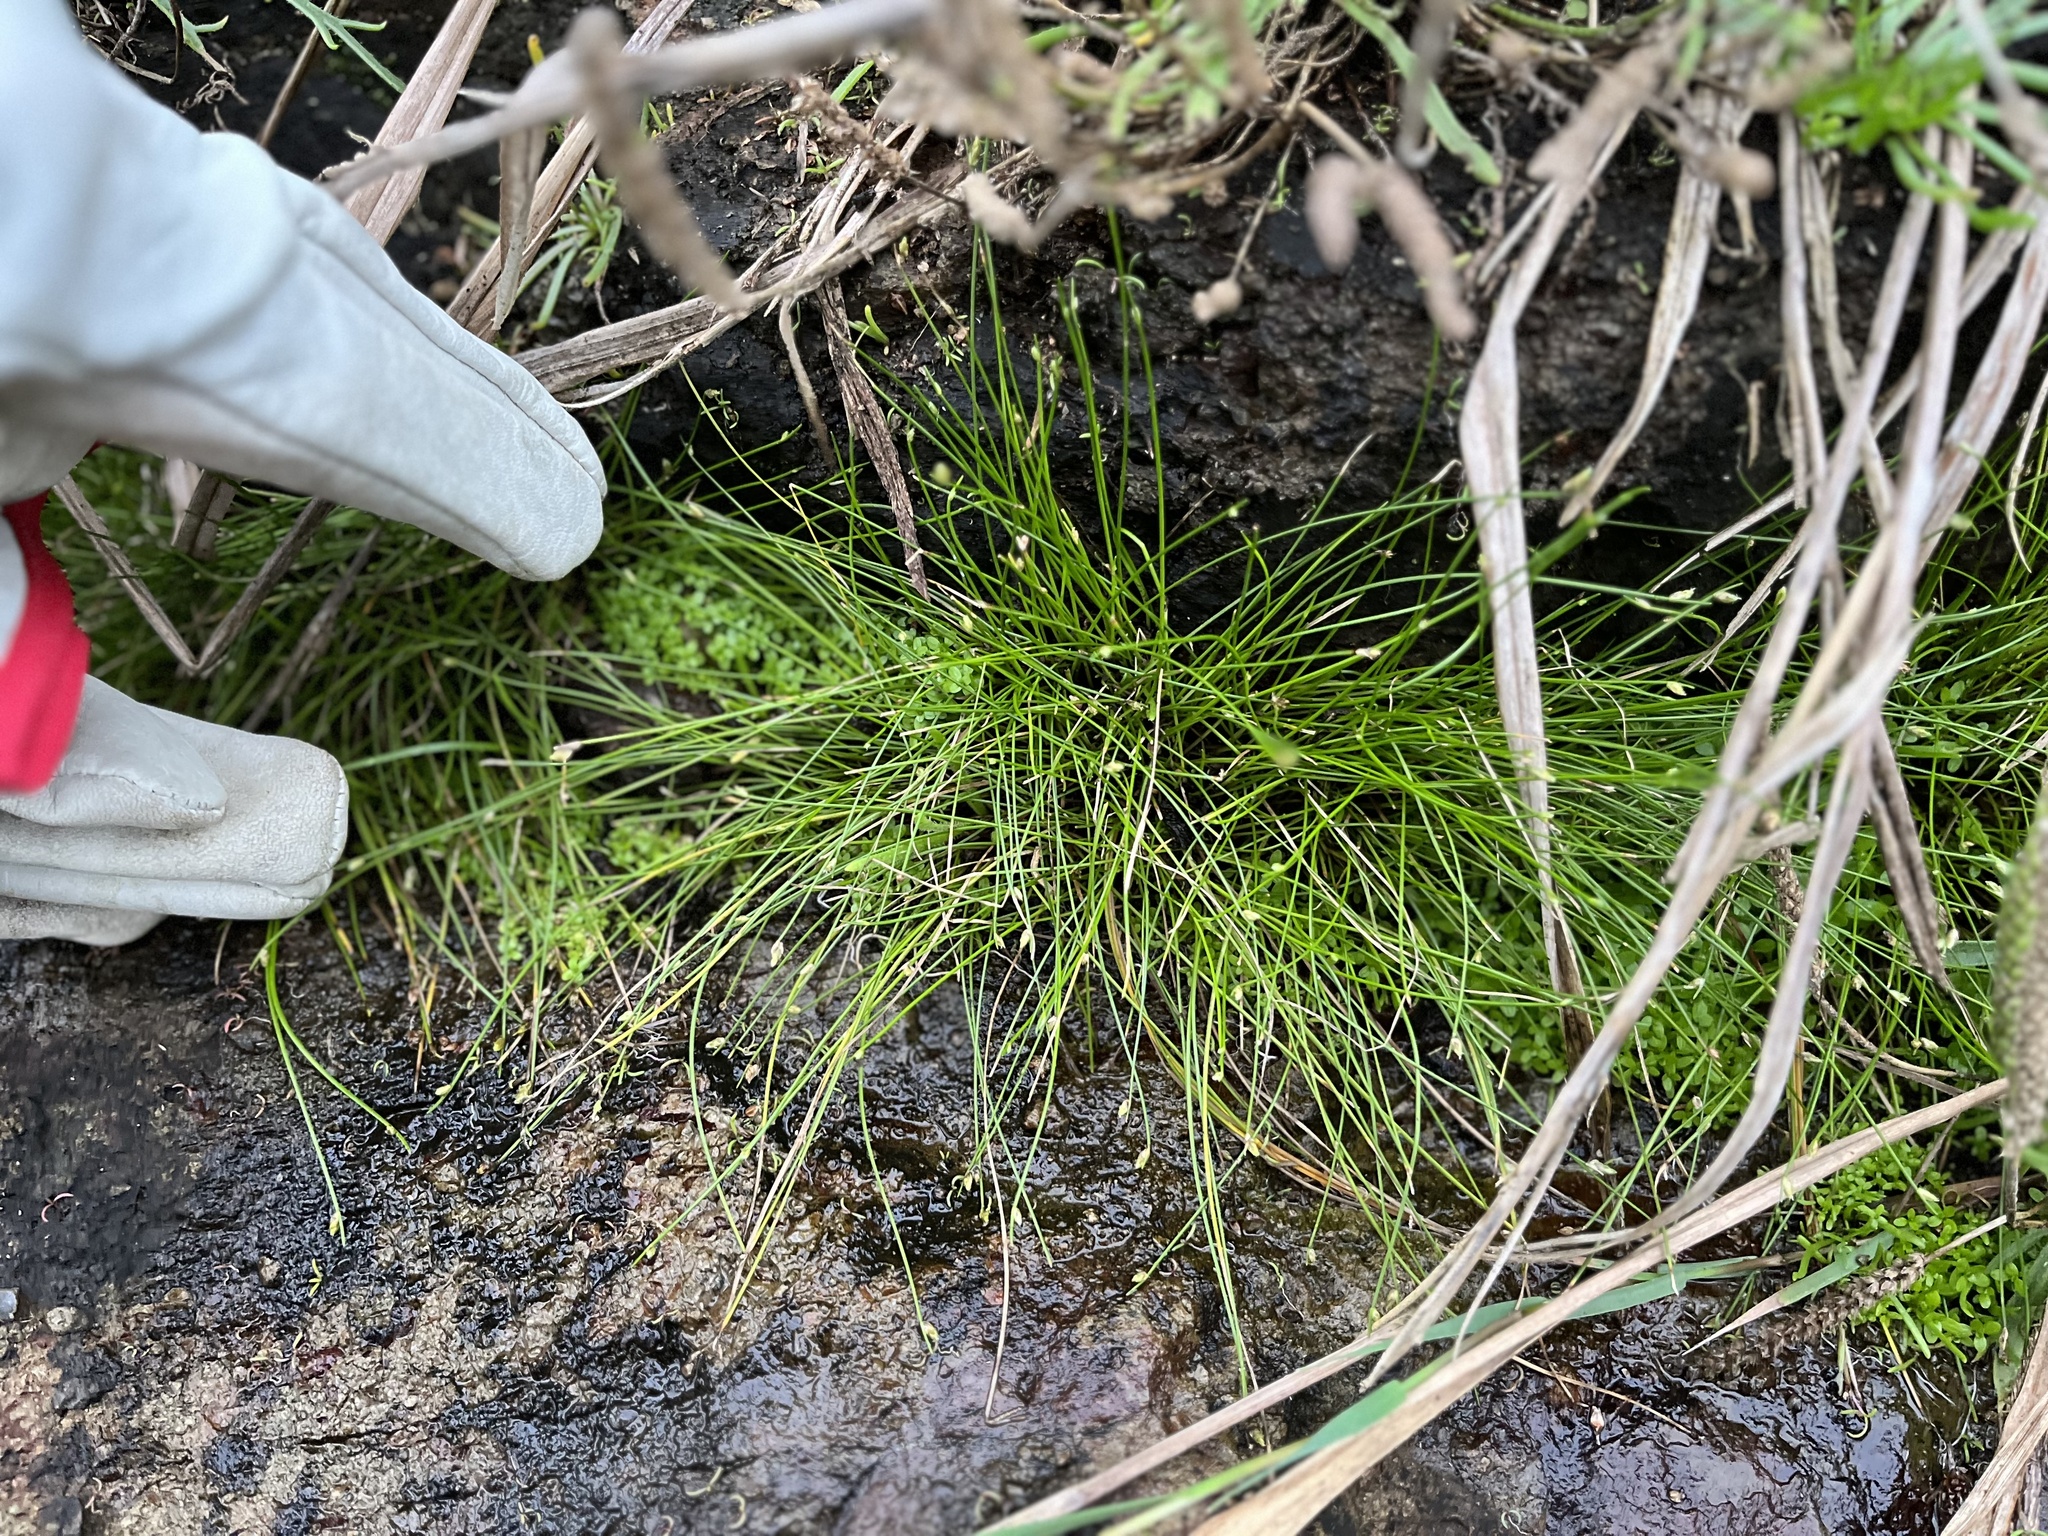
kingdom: Plantae
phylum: Tracheophyta
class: Liliopsida
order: Poales
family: Cyperaceae
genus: Isolepis
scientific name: Isolepis cernua
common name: Slender club-rush
